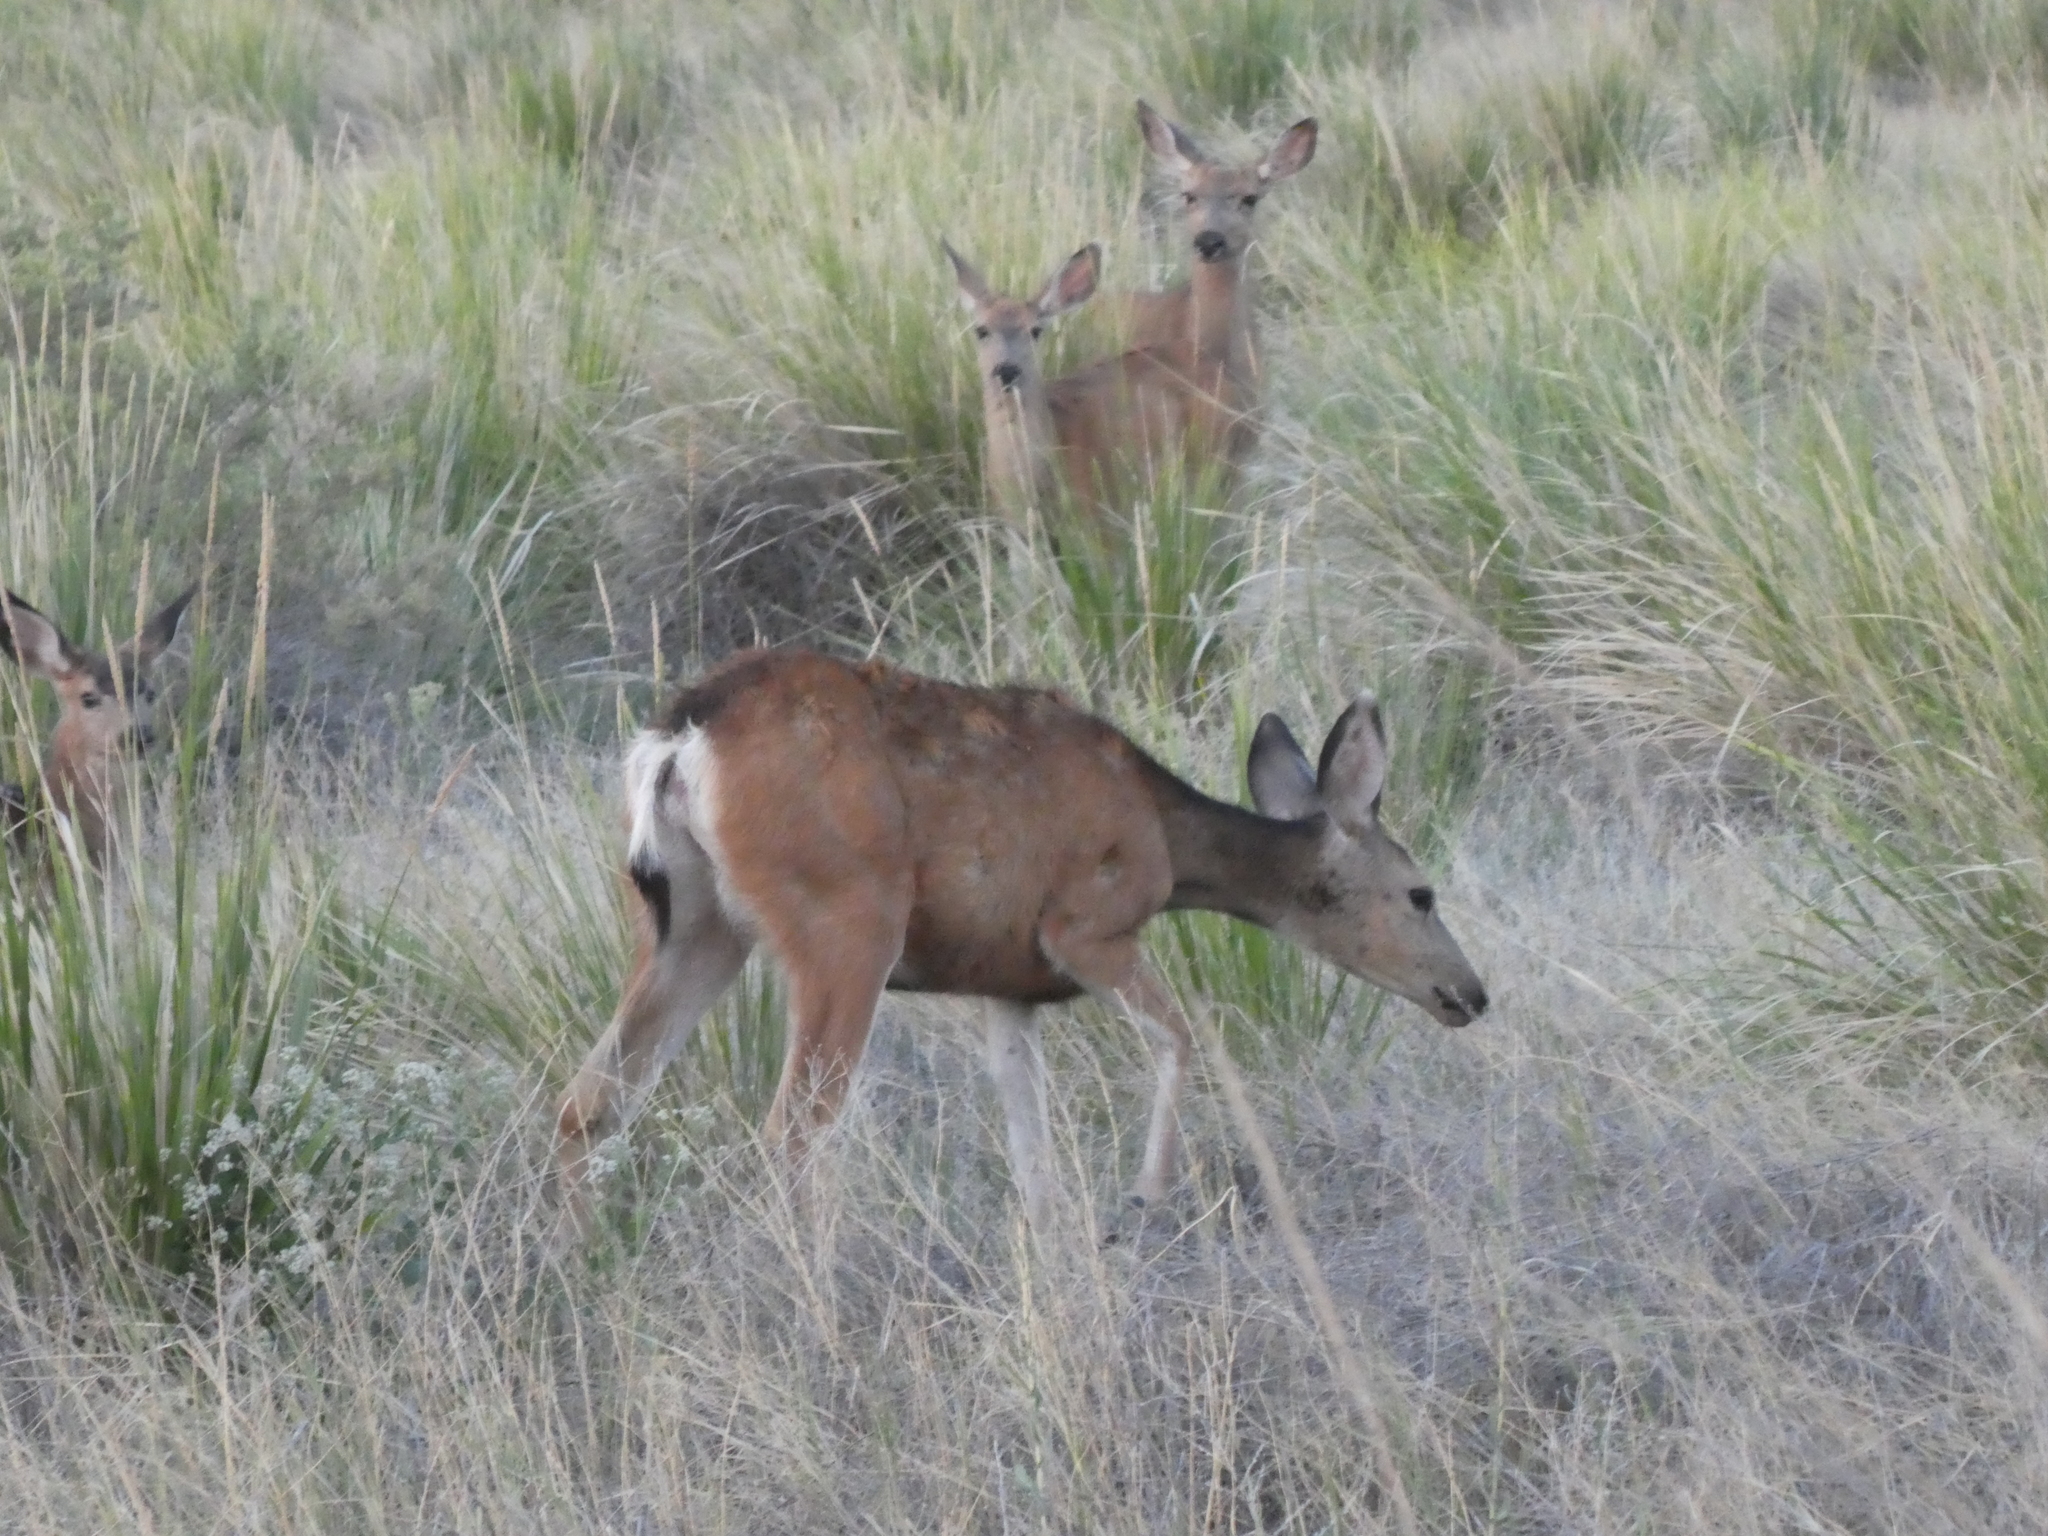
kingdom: Animalia
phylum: Chordata
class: Mammalia
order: Artiodactyla
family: Cervidae
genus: Odocoileus
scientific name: Odocoileus hemionus
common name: Mule deer
